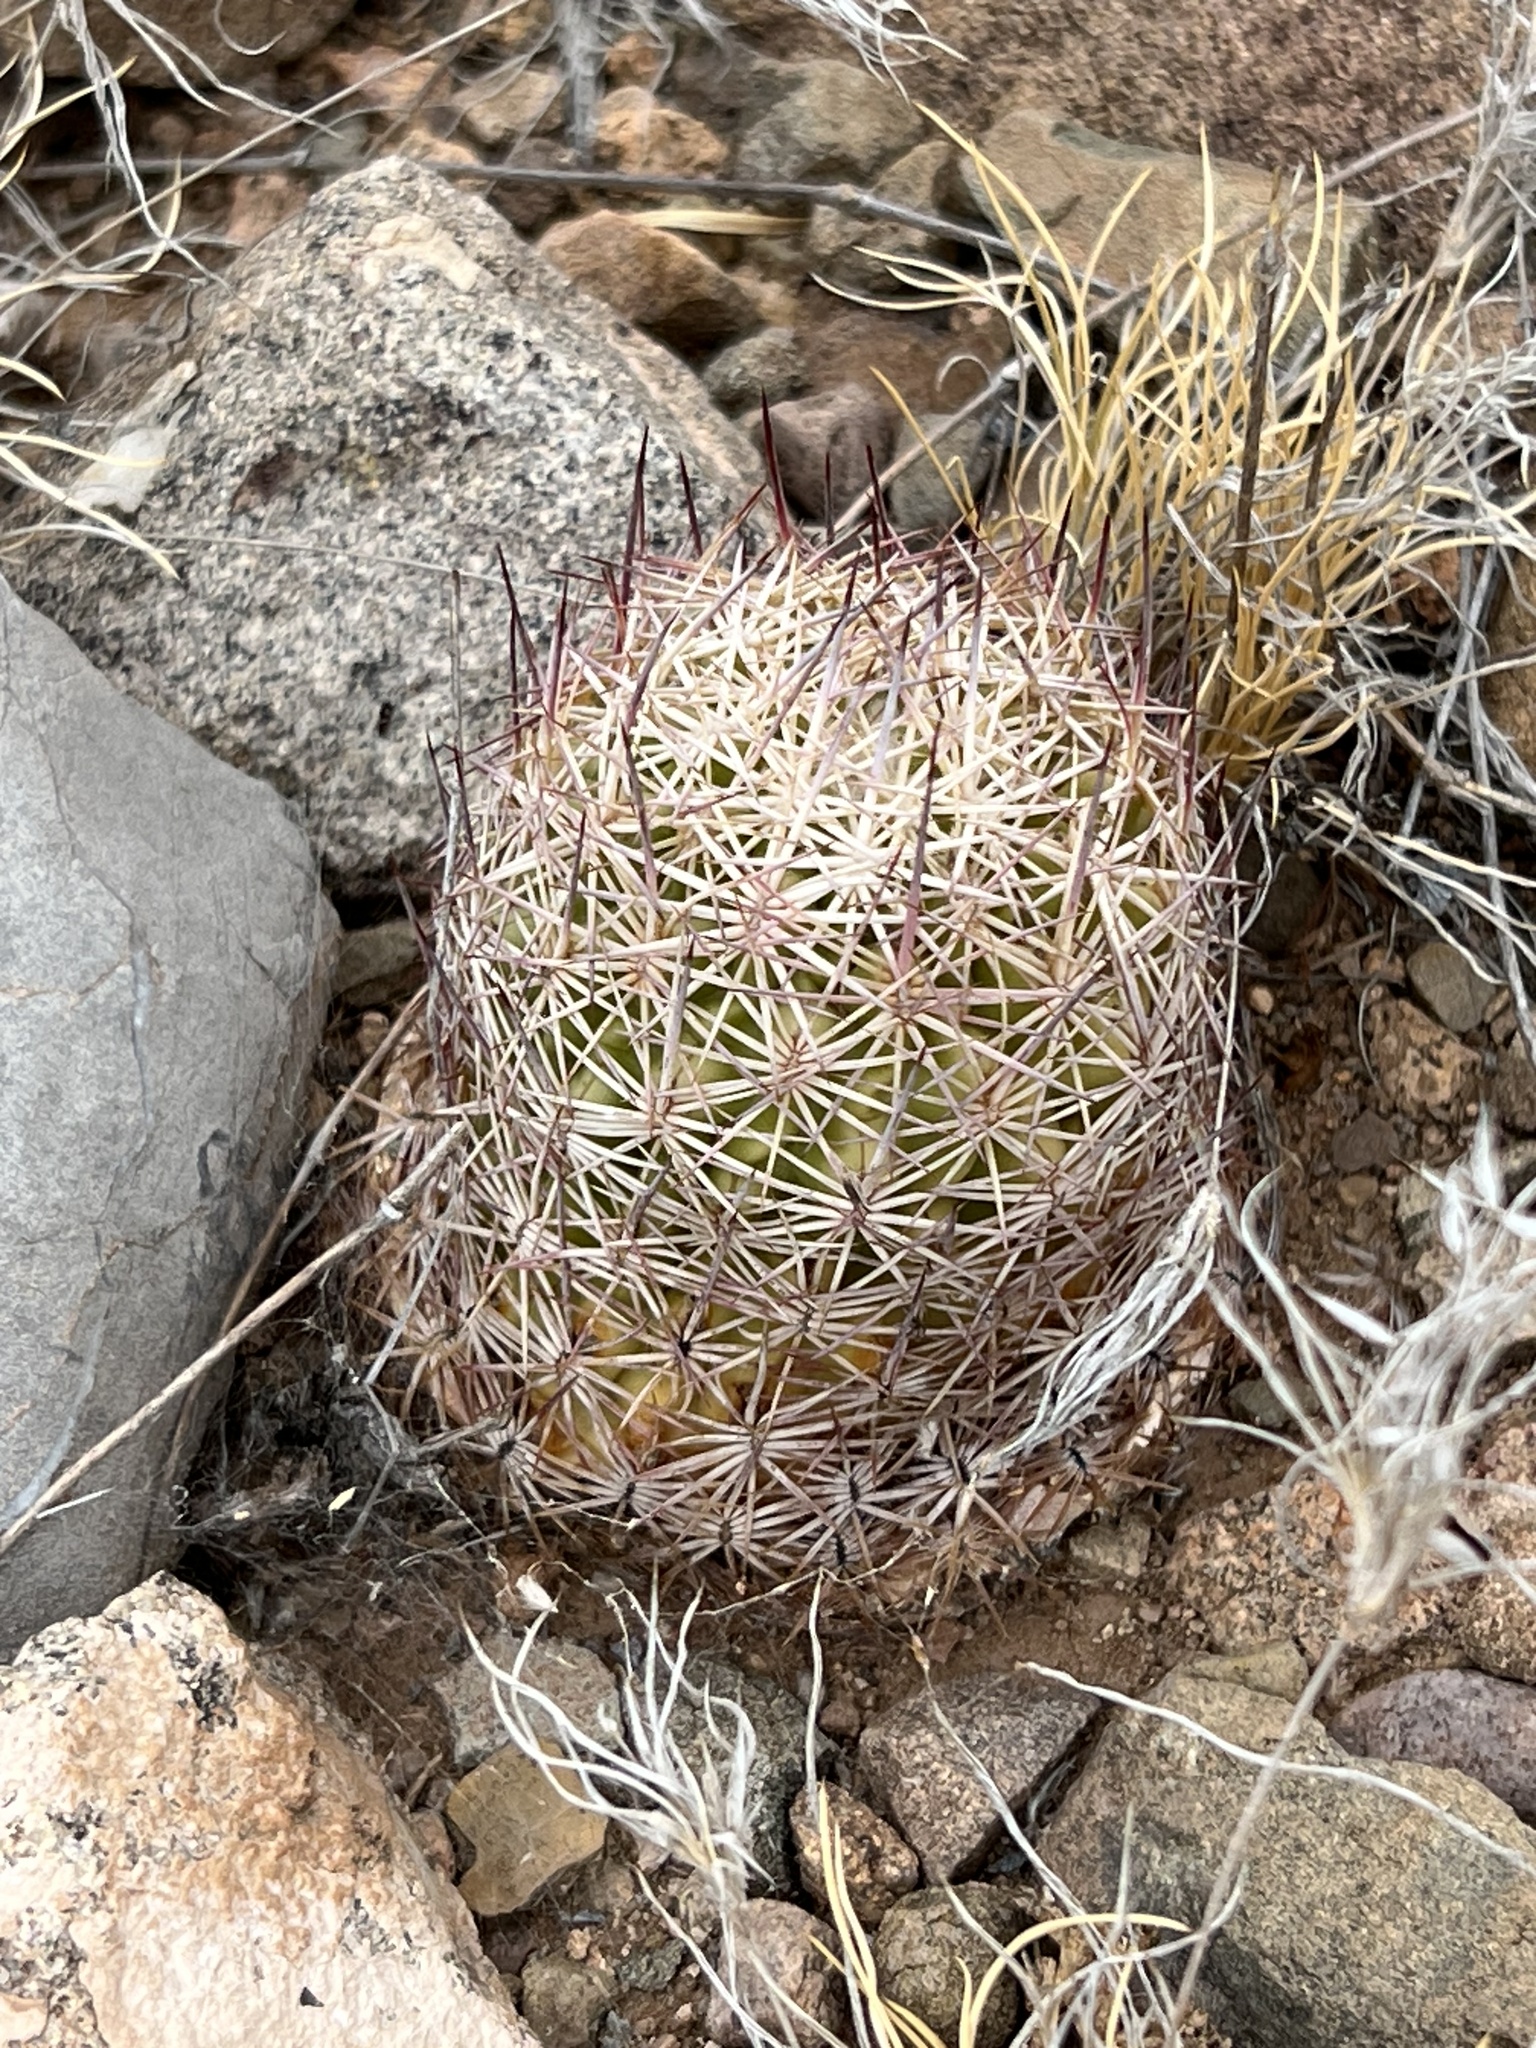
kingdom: Plantae
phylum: Tracheophyta
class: Magnoliopsida
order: Caryophyllales
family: Cactaceae
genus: Sclerocactus
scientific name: Sclerocactus johnsonii
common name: Eight-spine fishhook cactus
